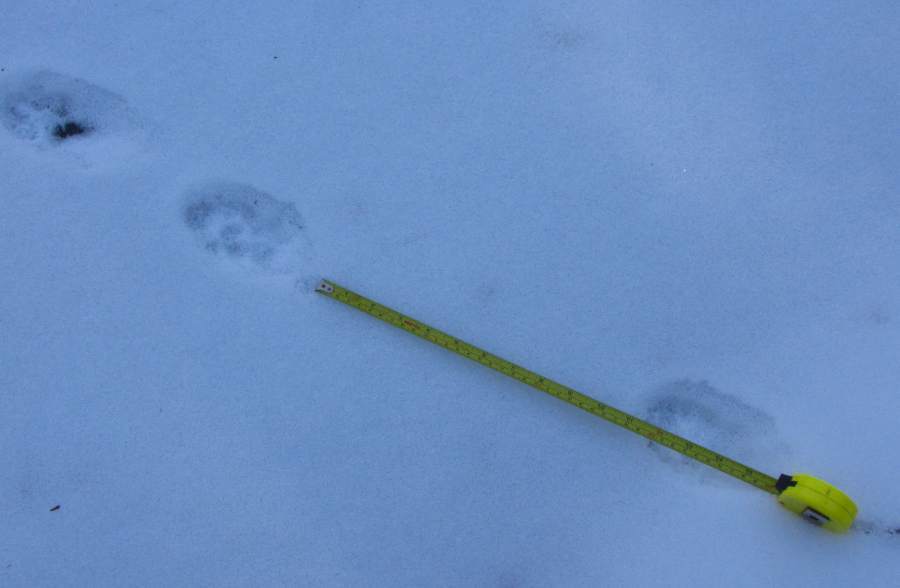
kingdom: Animalia
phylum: Chordata
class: Mammalia
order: Carnivora
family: Mustelidae
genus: Pekania
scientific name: Pekania pennanti
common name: Fisher
